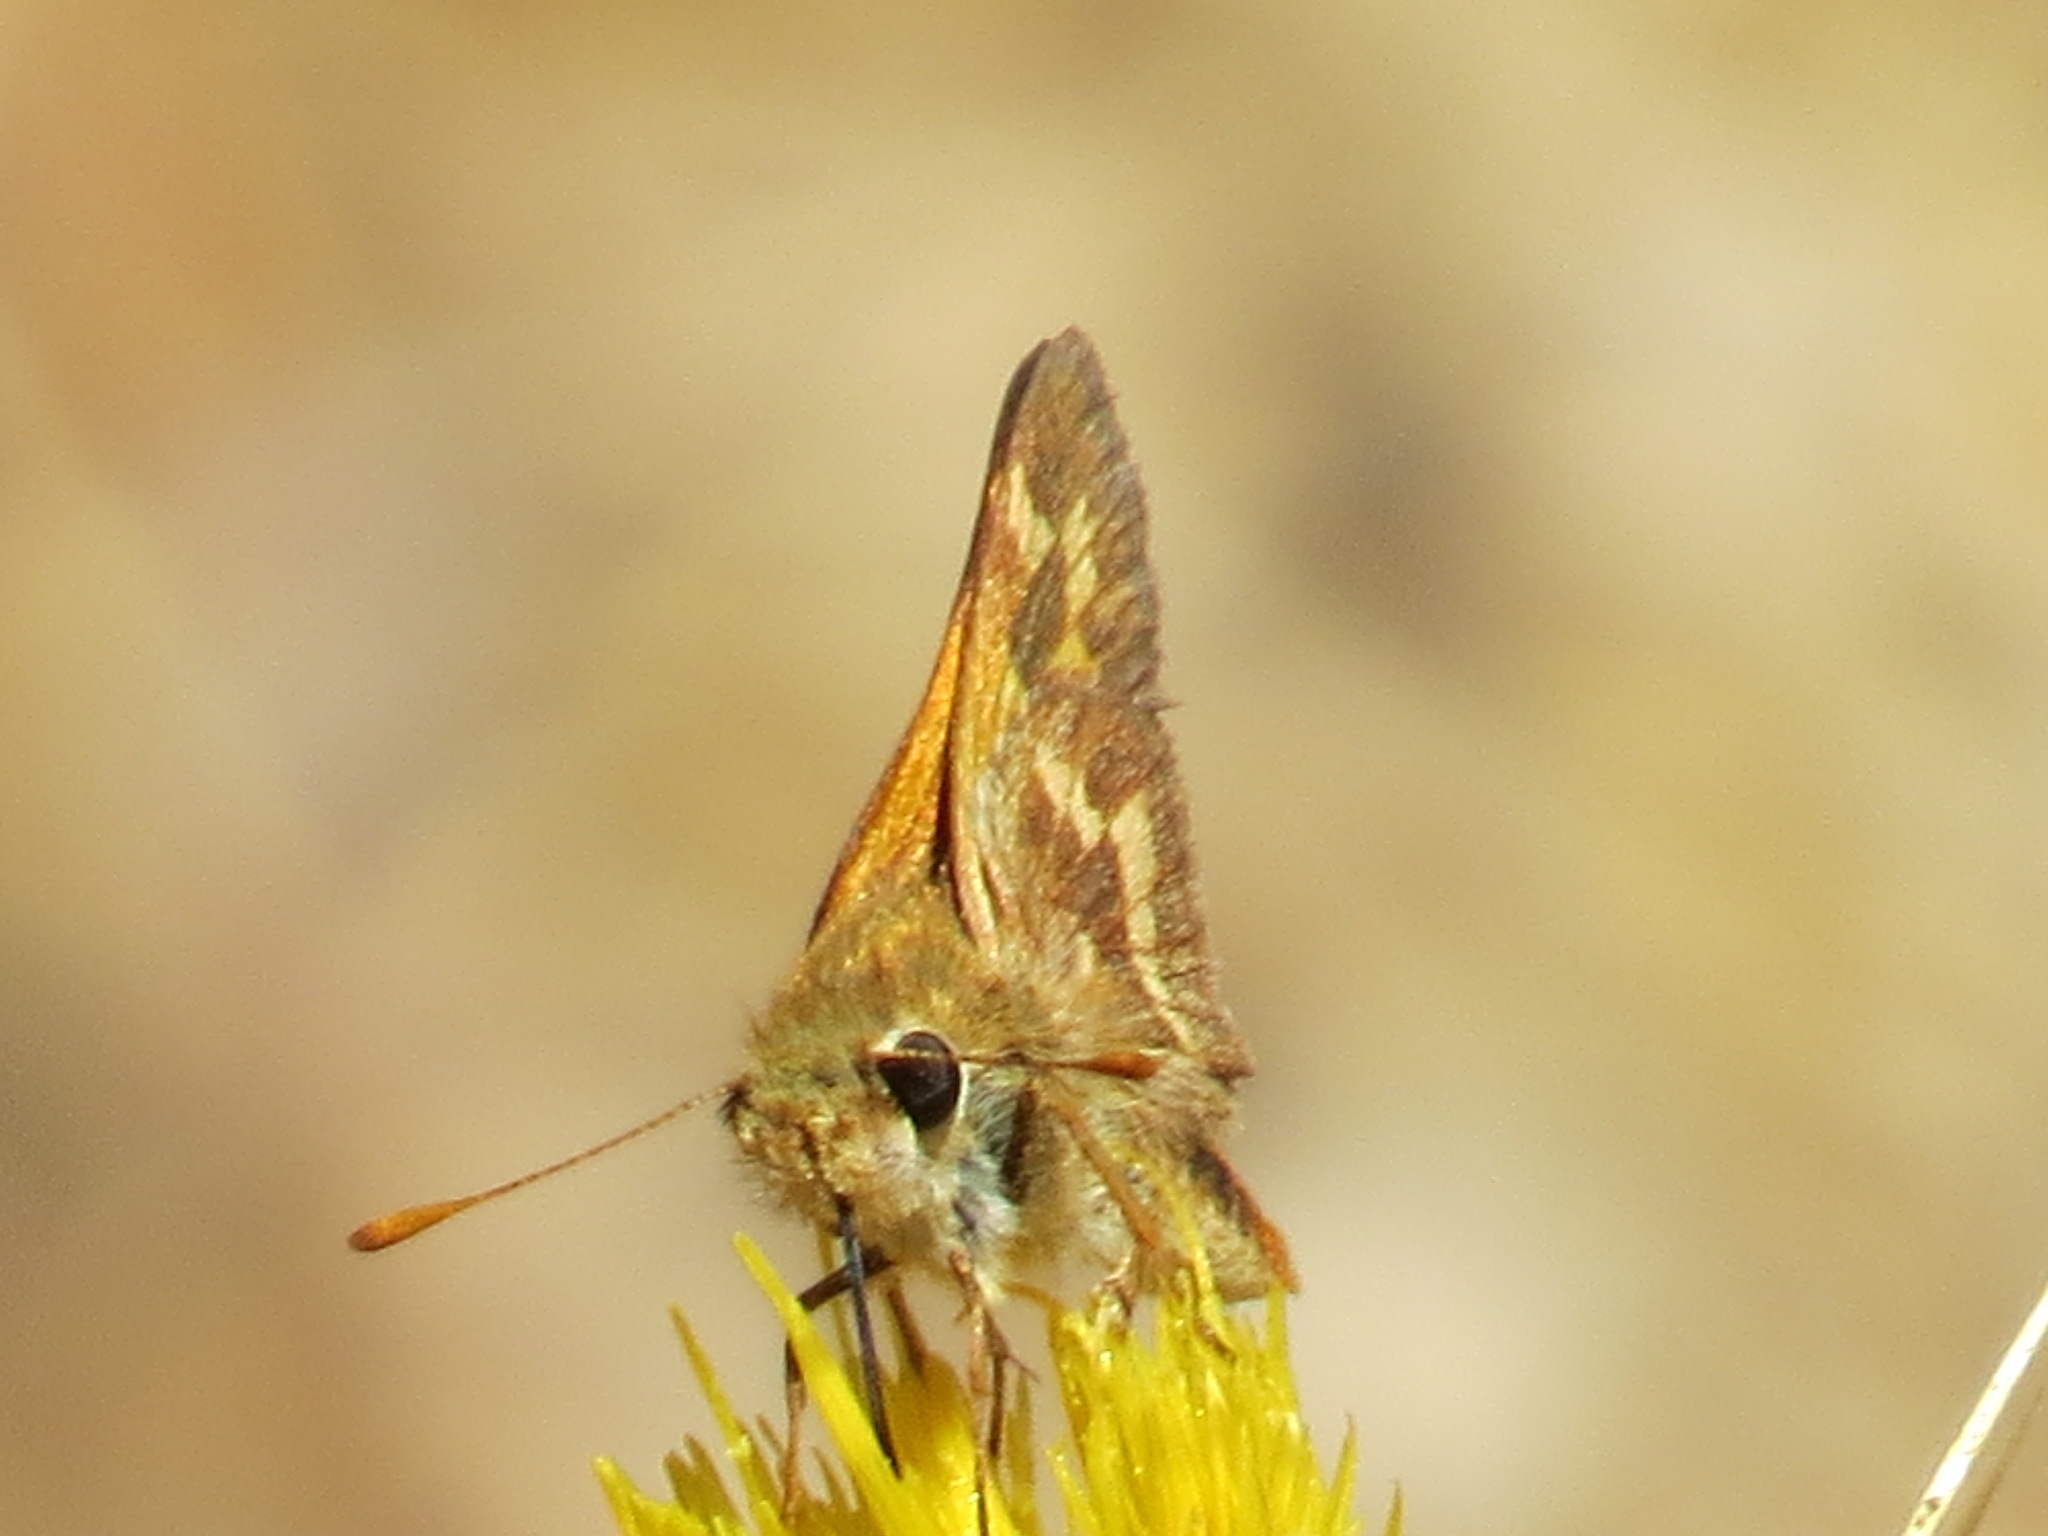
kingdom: Animalia
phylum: Arthropoda
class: Insecta
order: Lepidoptera
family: Hesperiidae
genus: Ochlodes
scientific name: Ochlodes sylvanoides
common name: Woodland skipper
